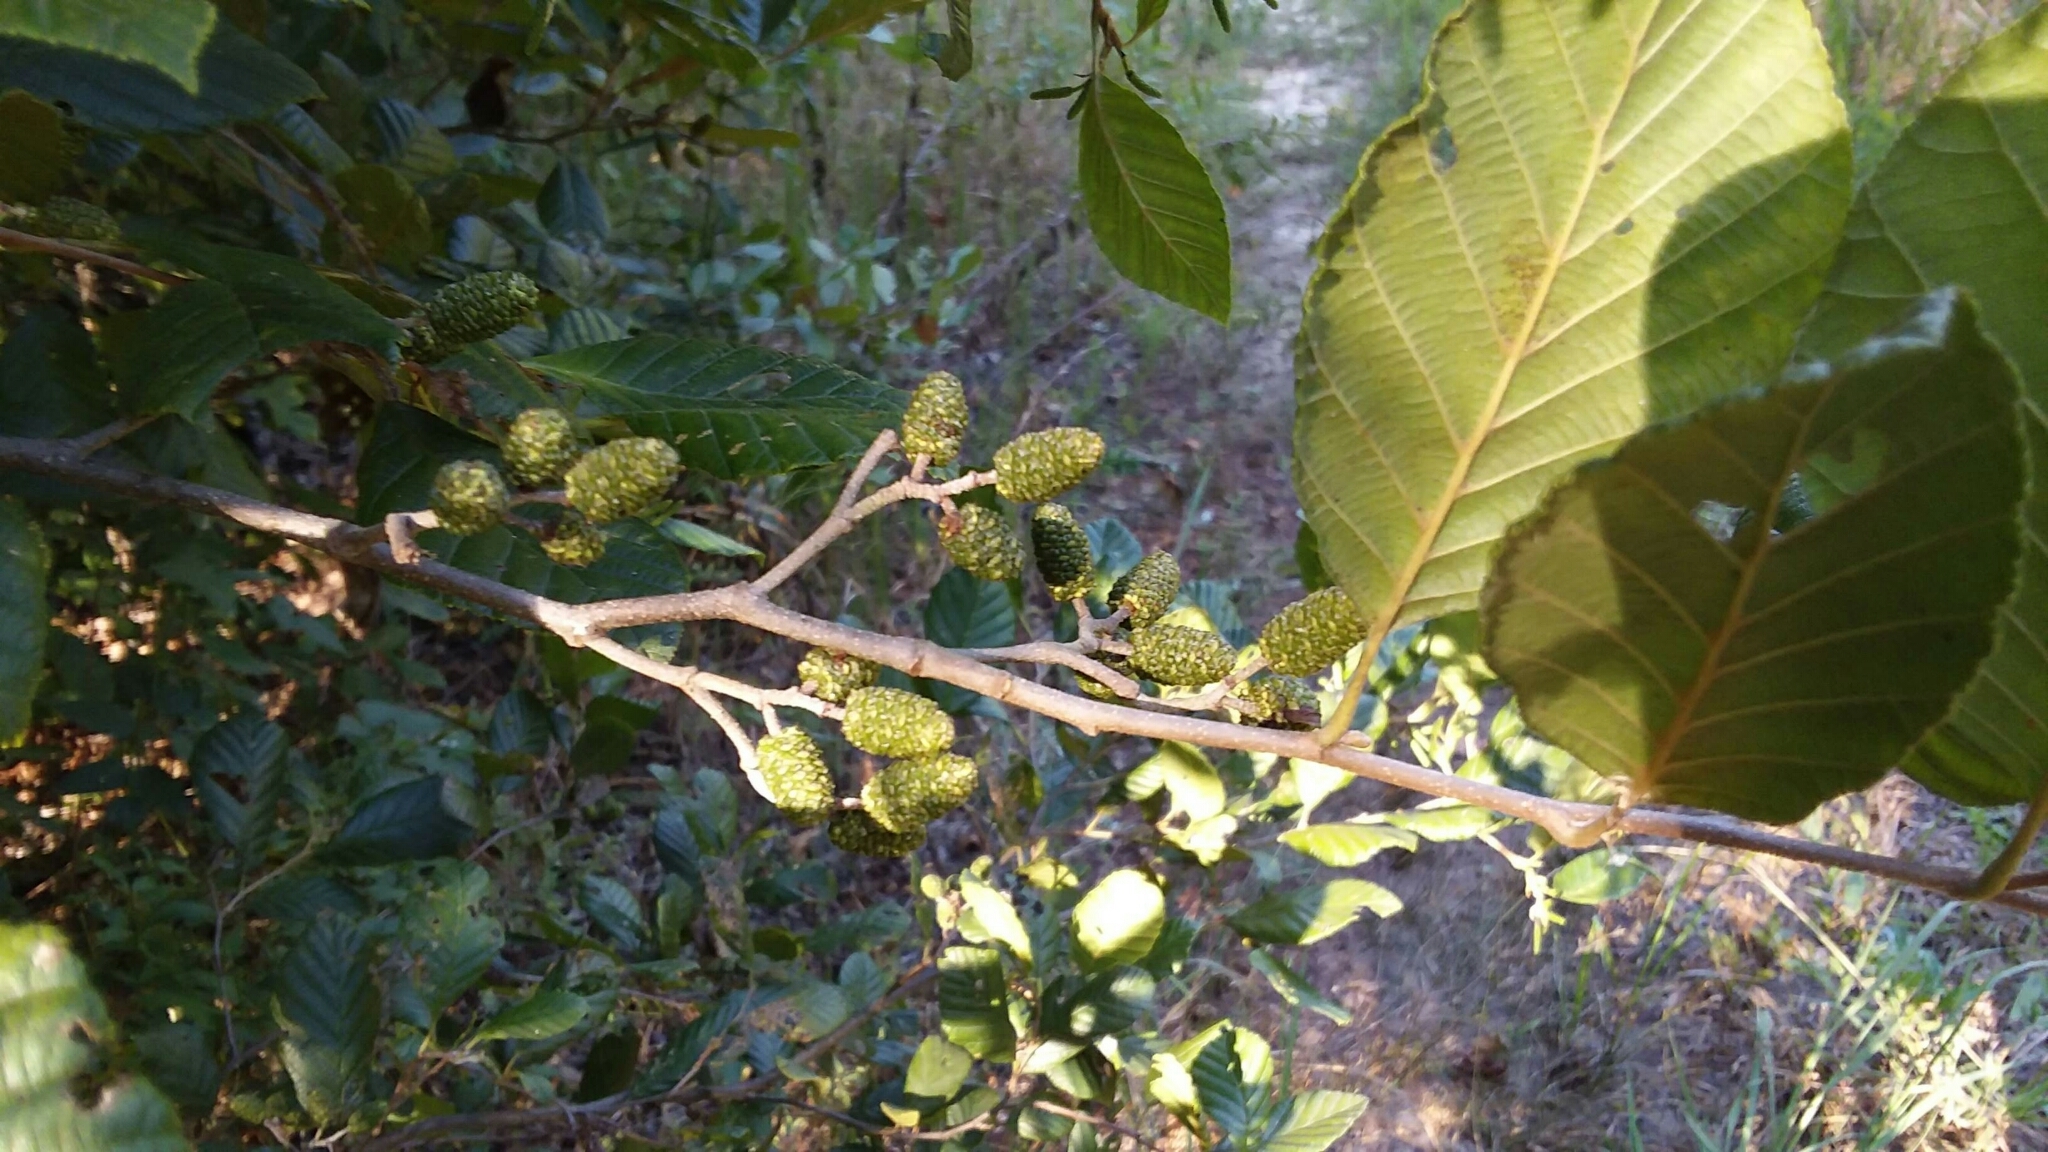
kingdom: Plantae
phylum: Tracheophyta
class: Magnoliopsida
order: Fagales
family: Betulaceae
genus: Alnus
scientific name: Alnus serrulata
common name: Hazel alder
